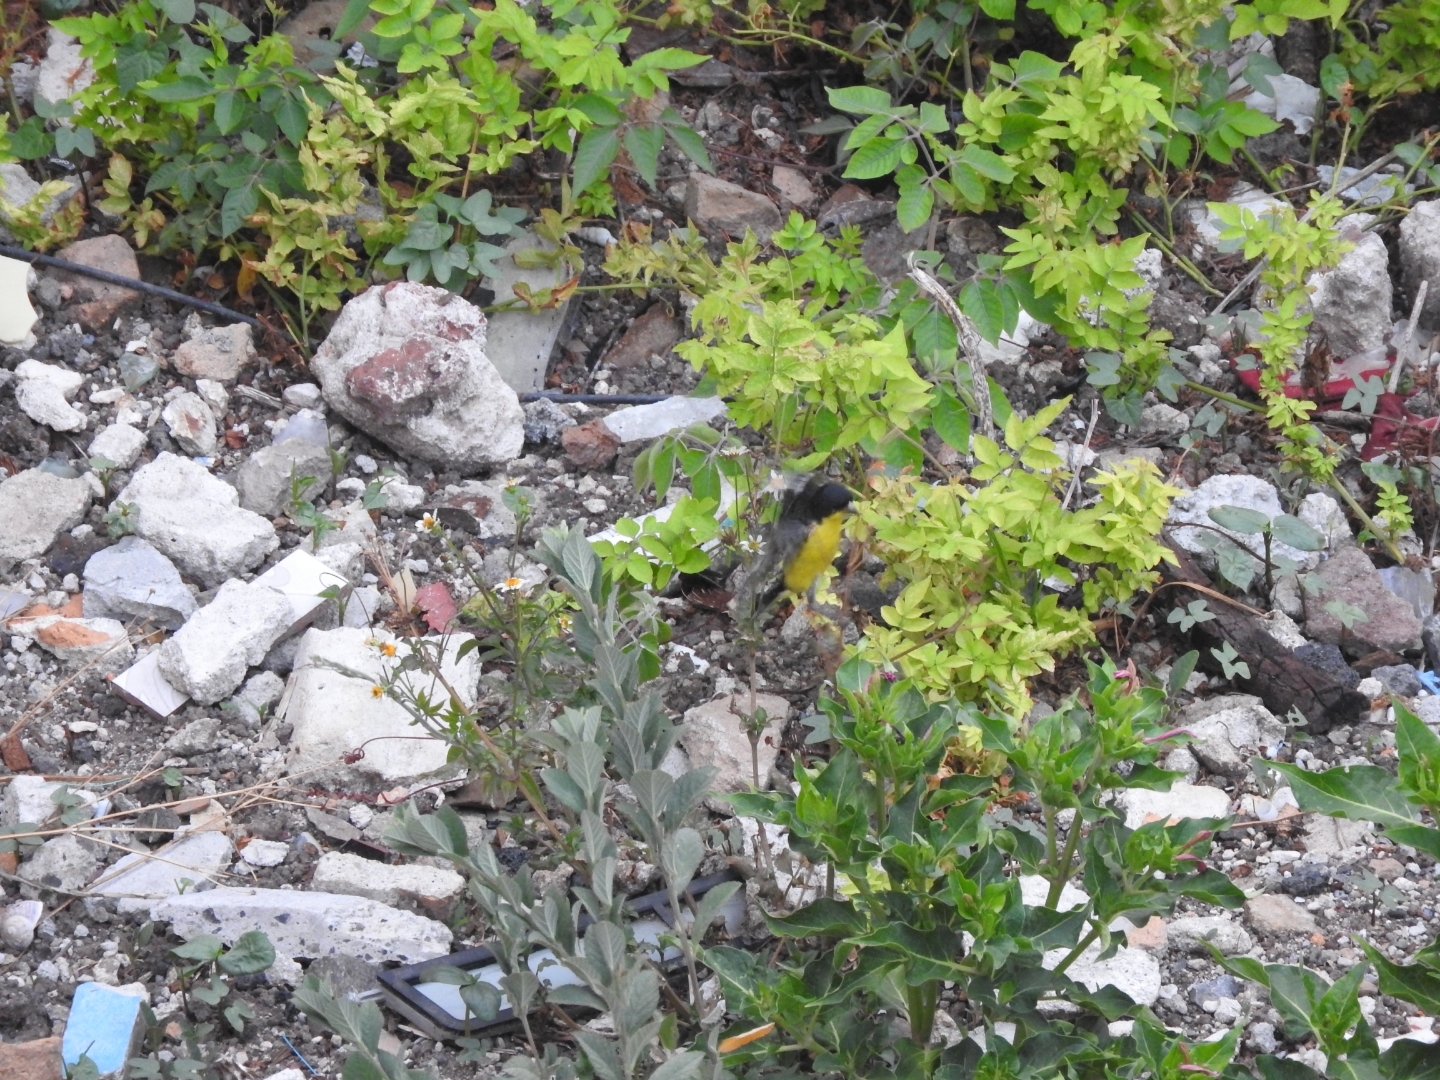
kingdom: Animalia
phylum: Chordata
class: Aves
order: Passeriformes
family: Fringillidae
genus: Spinus
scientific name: Spinus psaltria
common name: Lesser goldfinch
